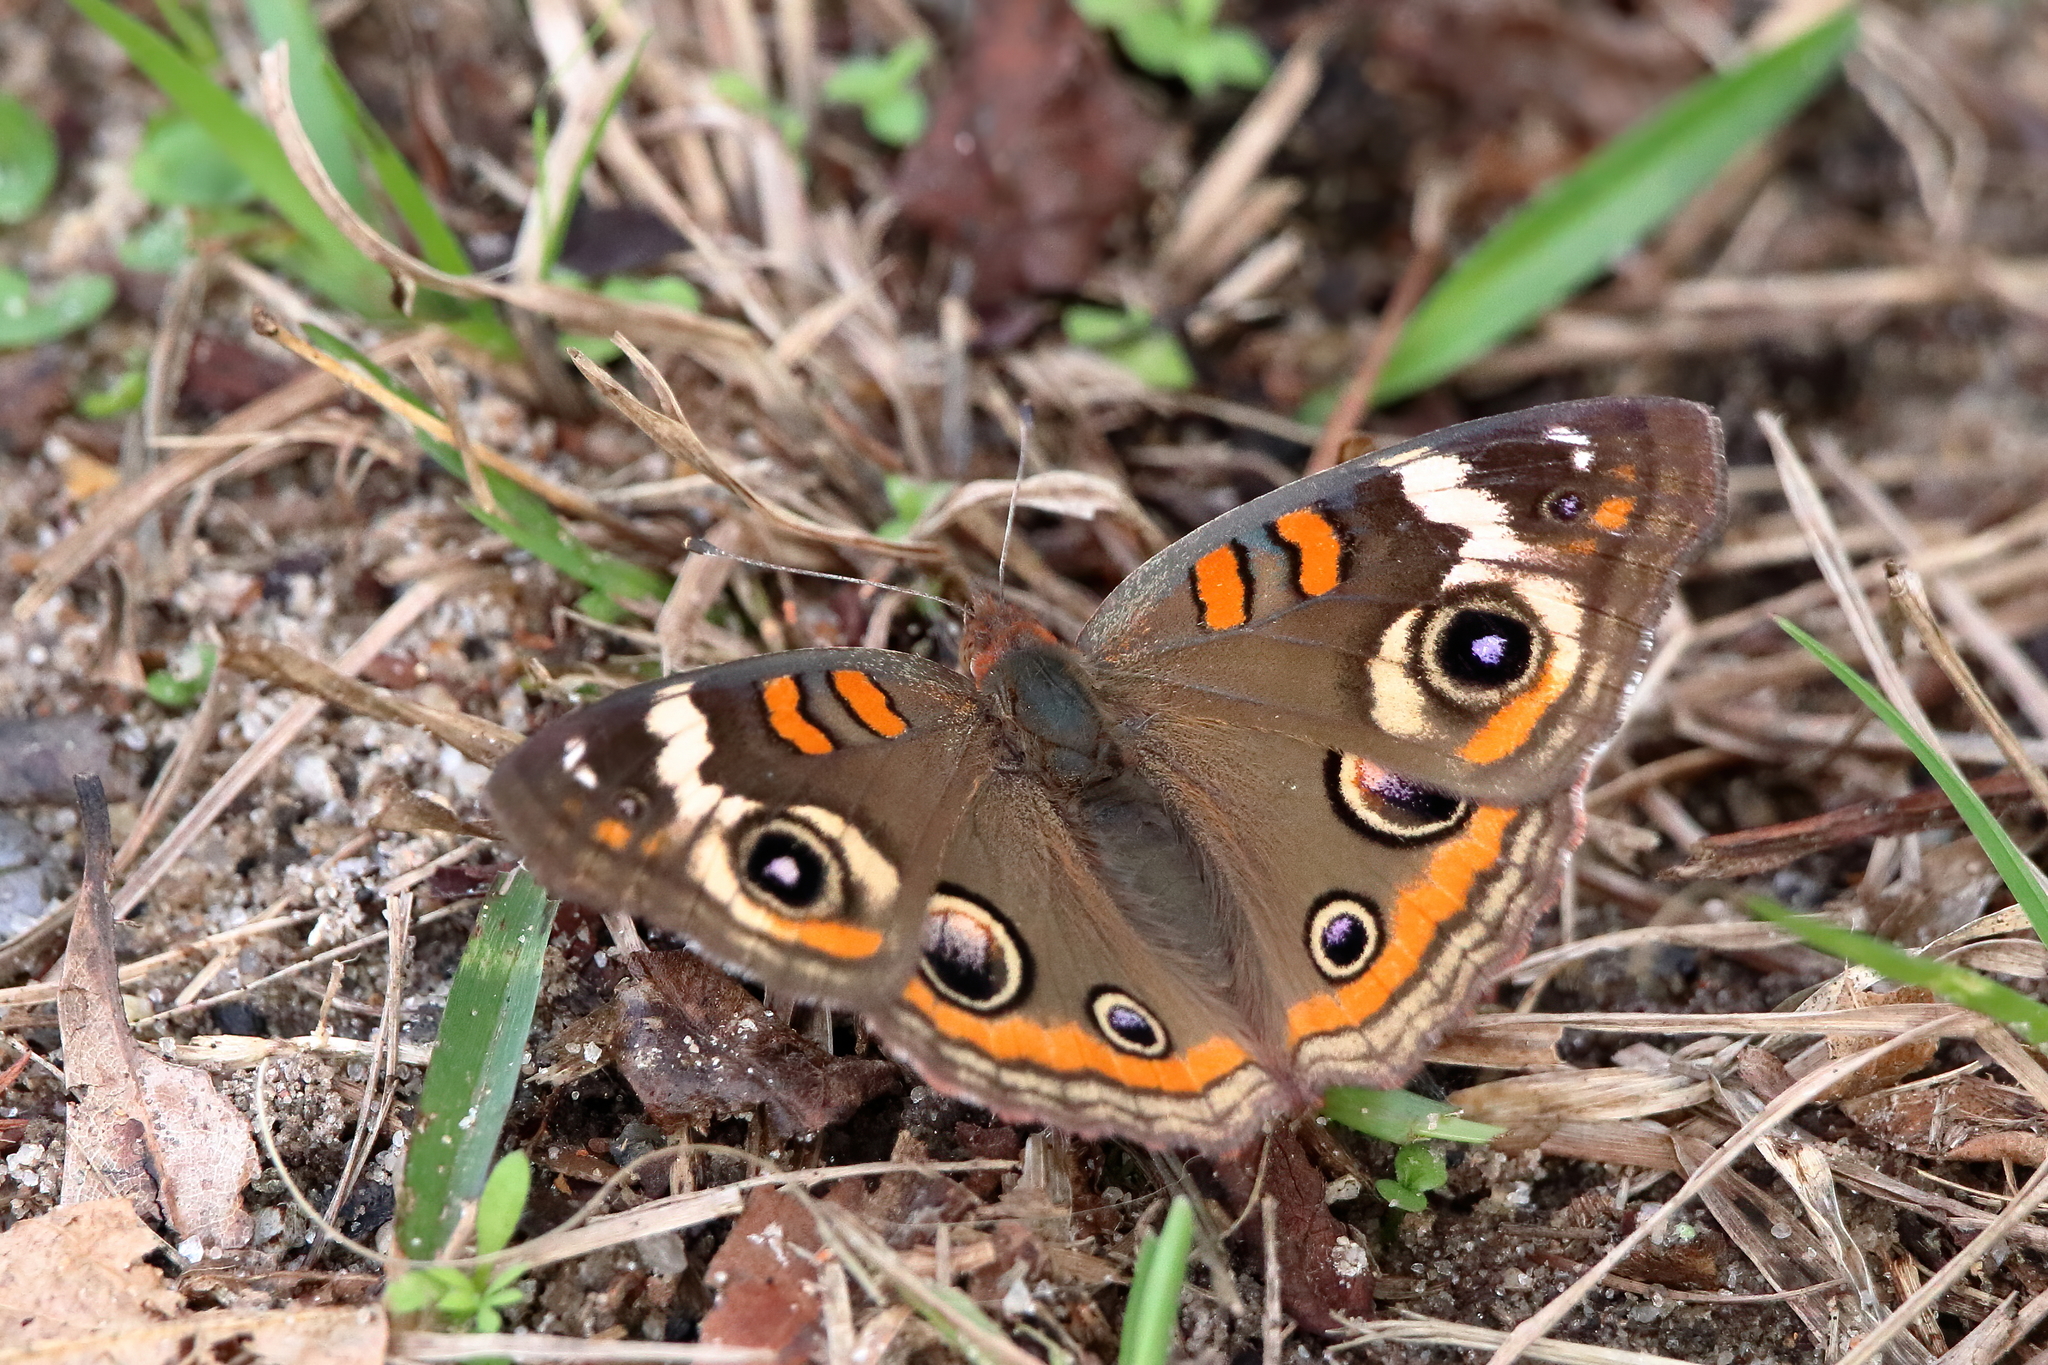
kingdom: Animalia
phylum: Arthropoda
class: Insecta
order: Lepidoptera
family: Nymphalidae
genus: Junonia
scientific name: Junonia coenia
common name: Common buckeye
